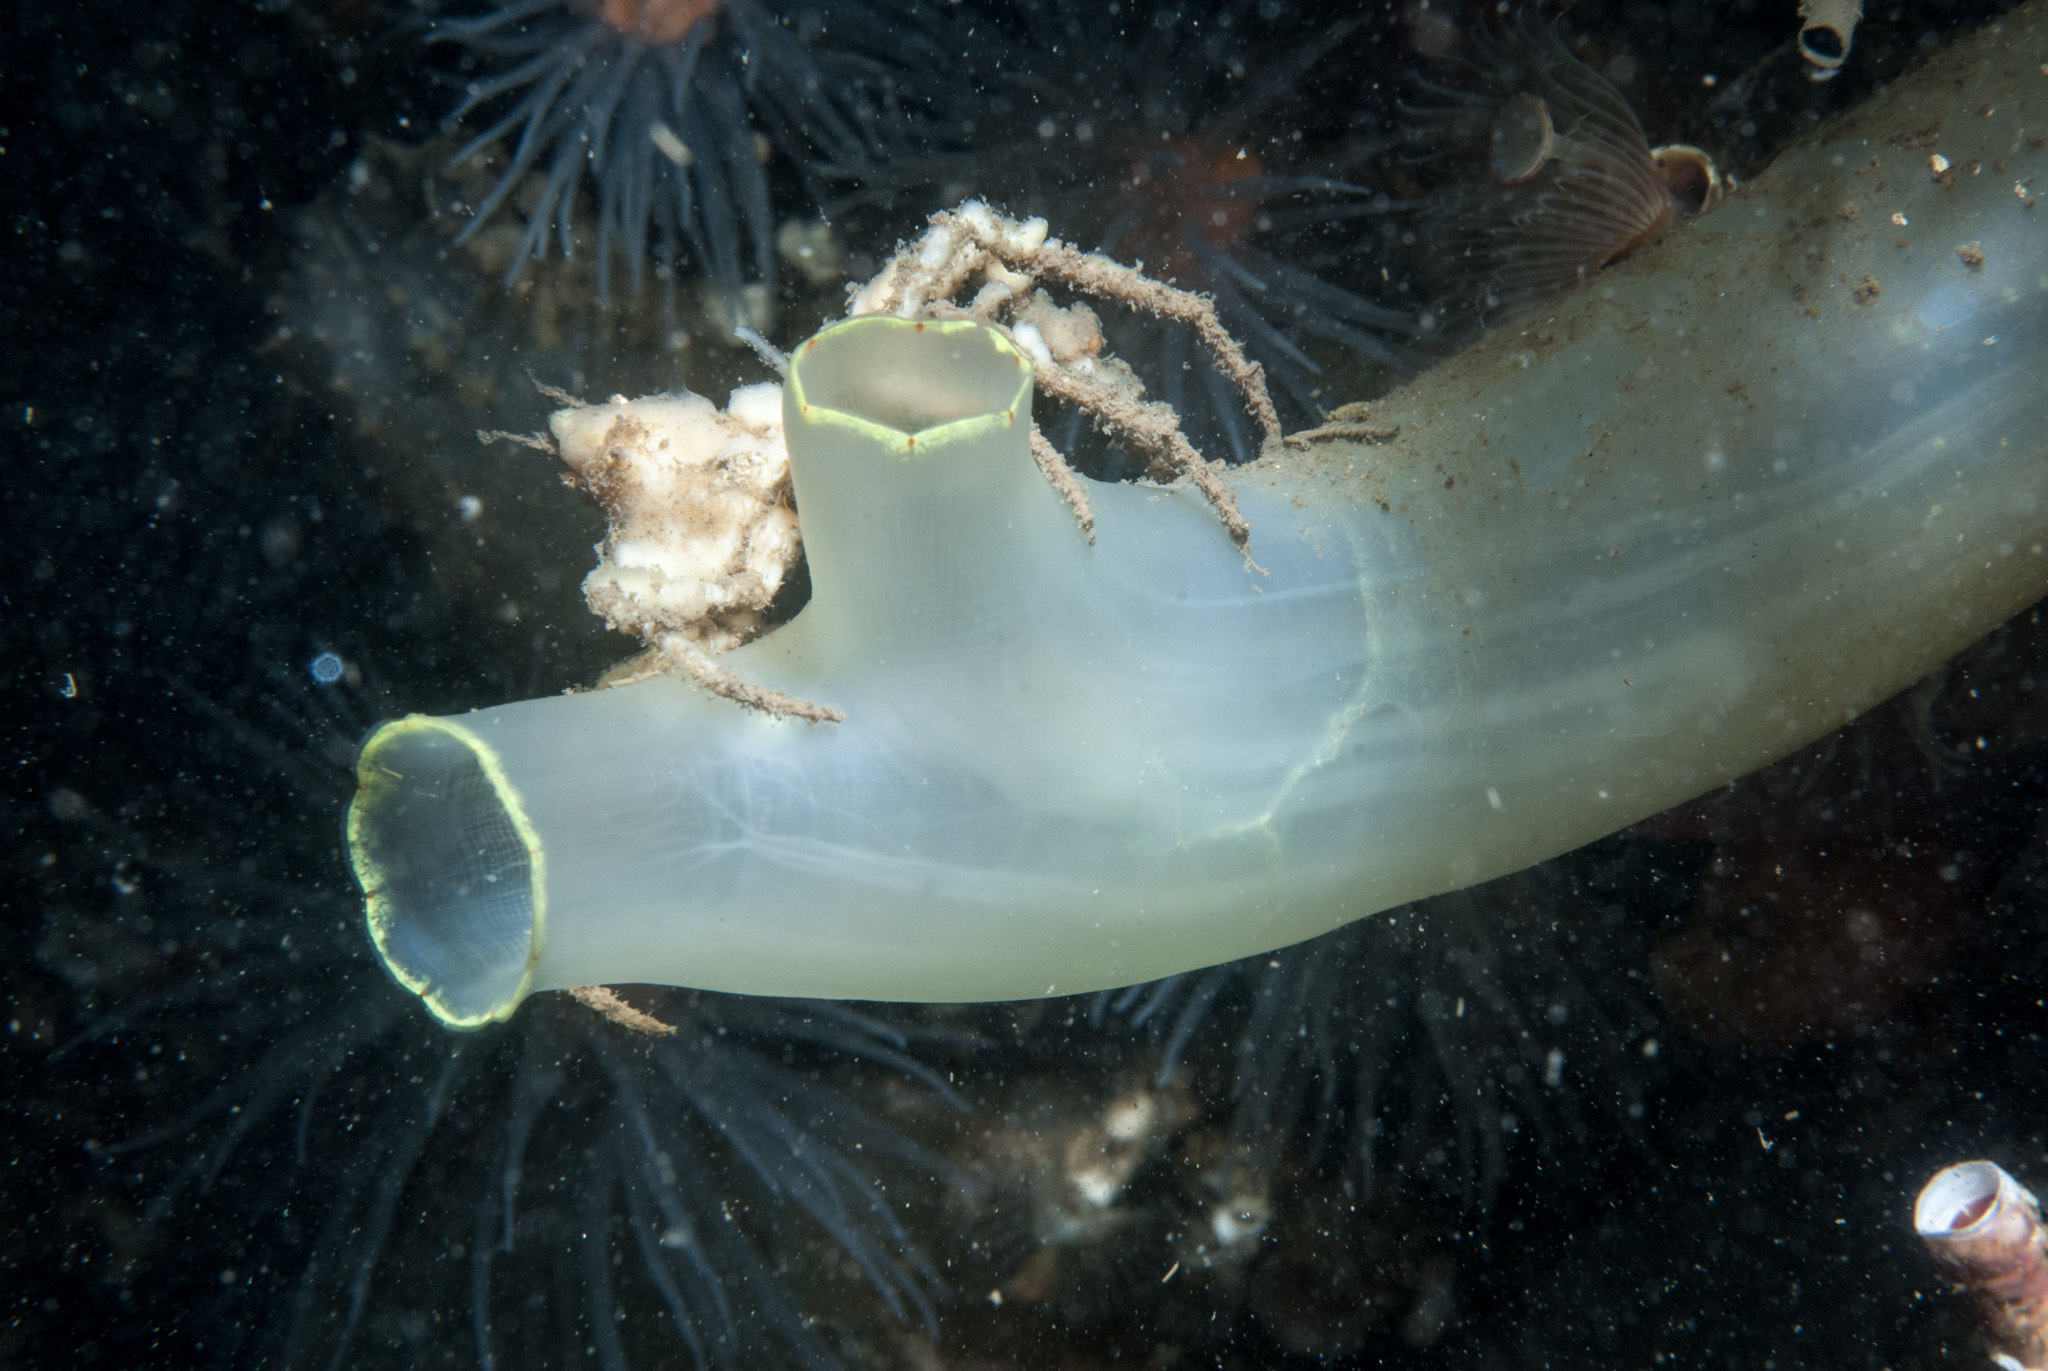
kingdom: Animalia
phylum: Chordata
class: Ascidiacea
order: Phlebobranchia
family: Cionidae
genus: Ciona
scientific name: Ciona intestinalis
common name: Vase tunicate
